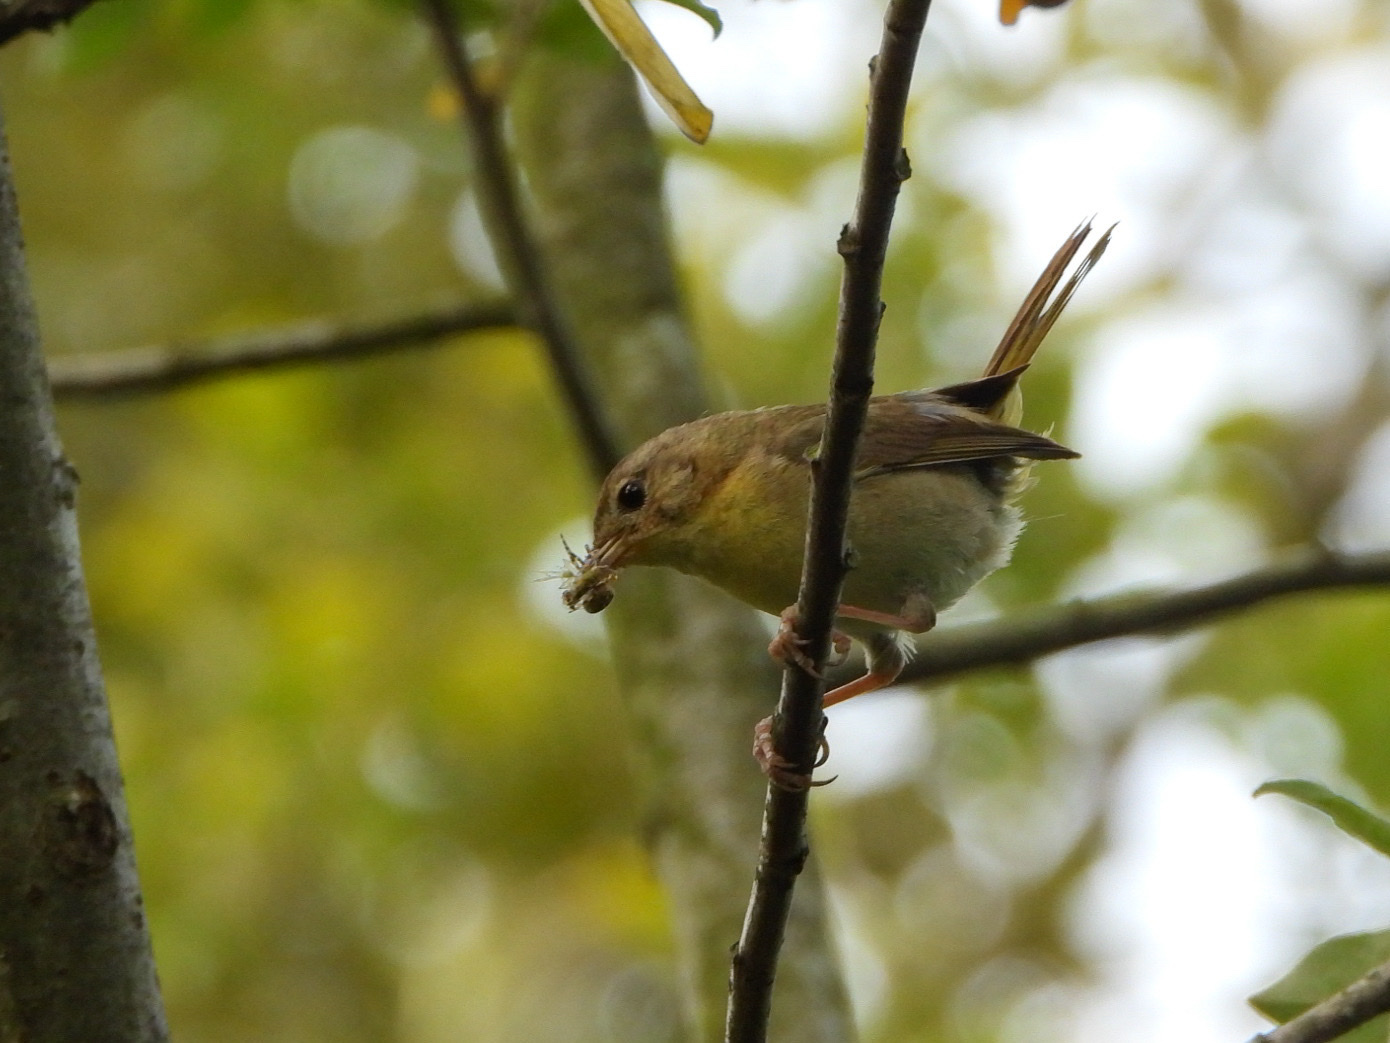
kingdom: Animalia
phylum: Chordata
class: Aves
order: Passeriformes
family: Parulidae
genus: Geothlypis
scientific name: Geothlypis trichas
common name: Common yellowthroat
